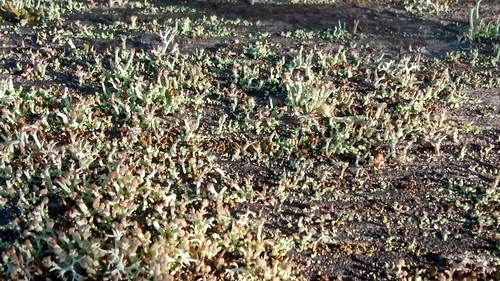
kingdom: Fungi
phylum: Ascomycota
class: Lecanoromycetes
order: Lecanorales
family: Cladoniaceae
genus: Cladonia
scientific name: Cladonia botrytes
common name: Stump lichen
